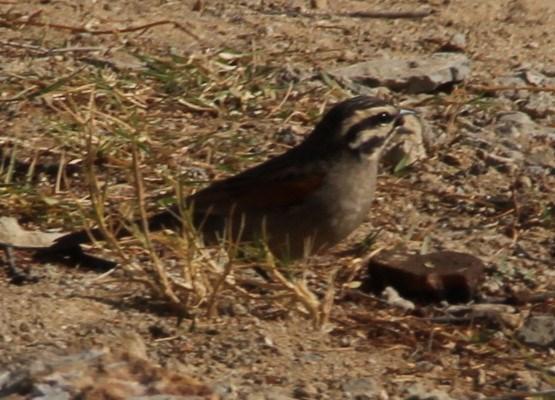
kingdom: Animalia
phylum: Chordata
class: Aves
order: Passeriformes
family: Emberizidae
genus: Emberiza
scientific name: Emberiza capensis
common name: Cape bunting
